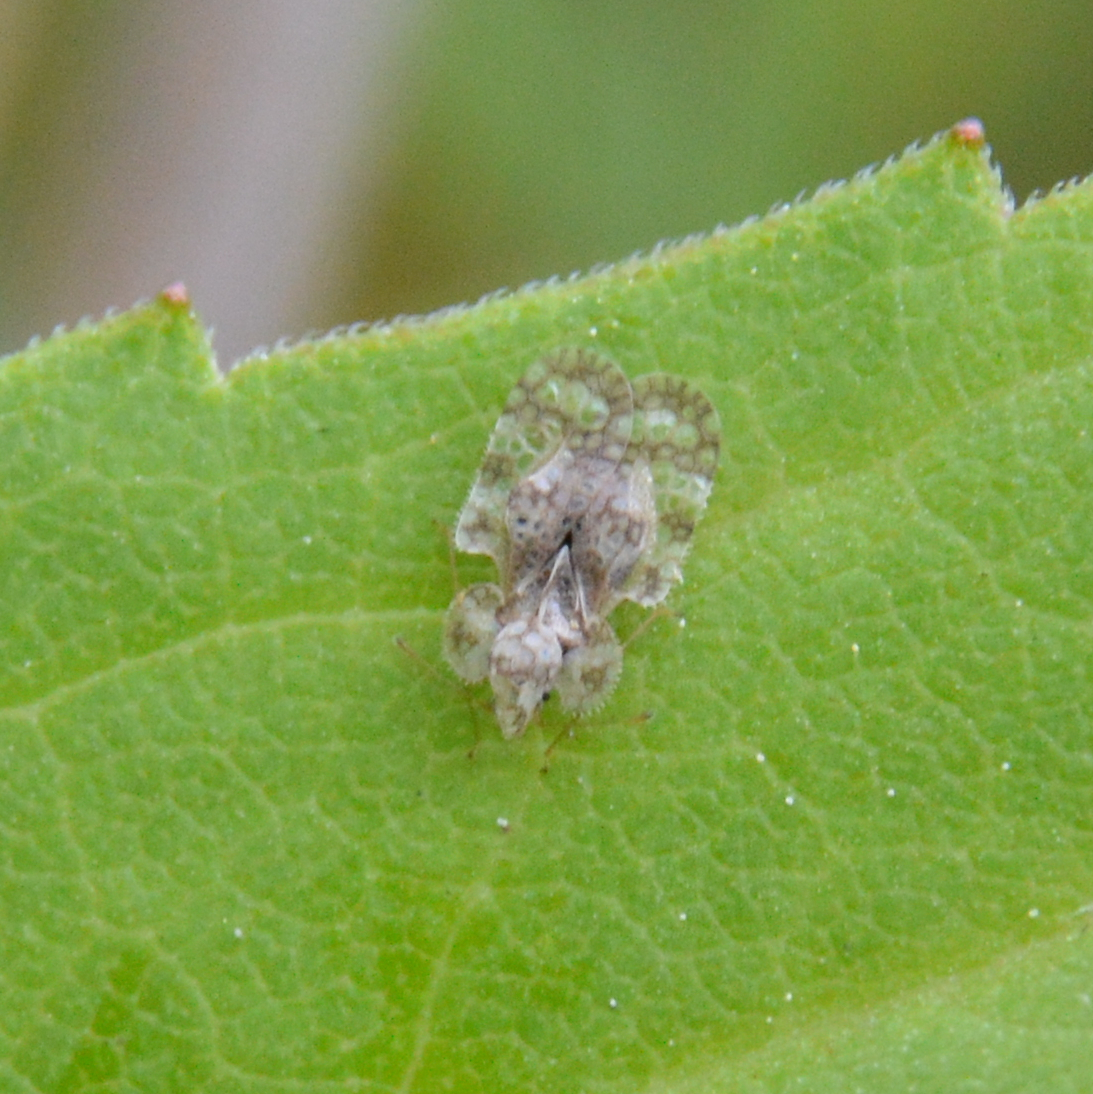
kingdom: Animalia
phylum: Arthropoda
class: Insecta
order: Hemiptera
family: Tingidae
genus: Corythucha
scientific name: Corythucha marmorata
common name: Chrysanthemum lace bug
